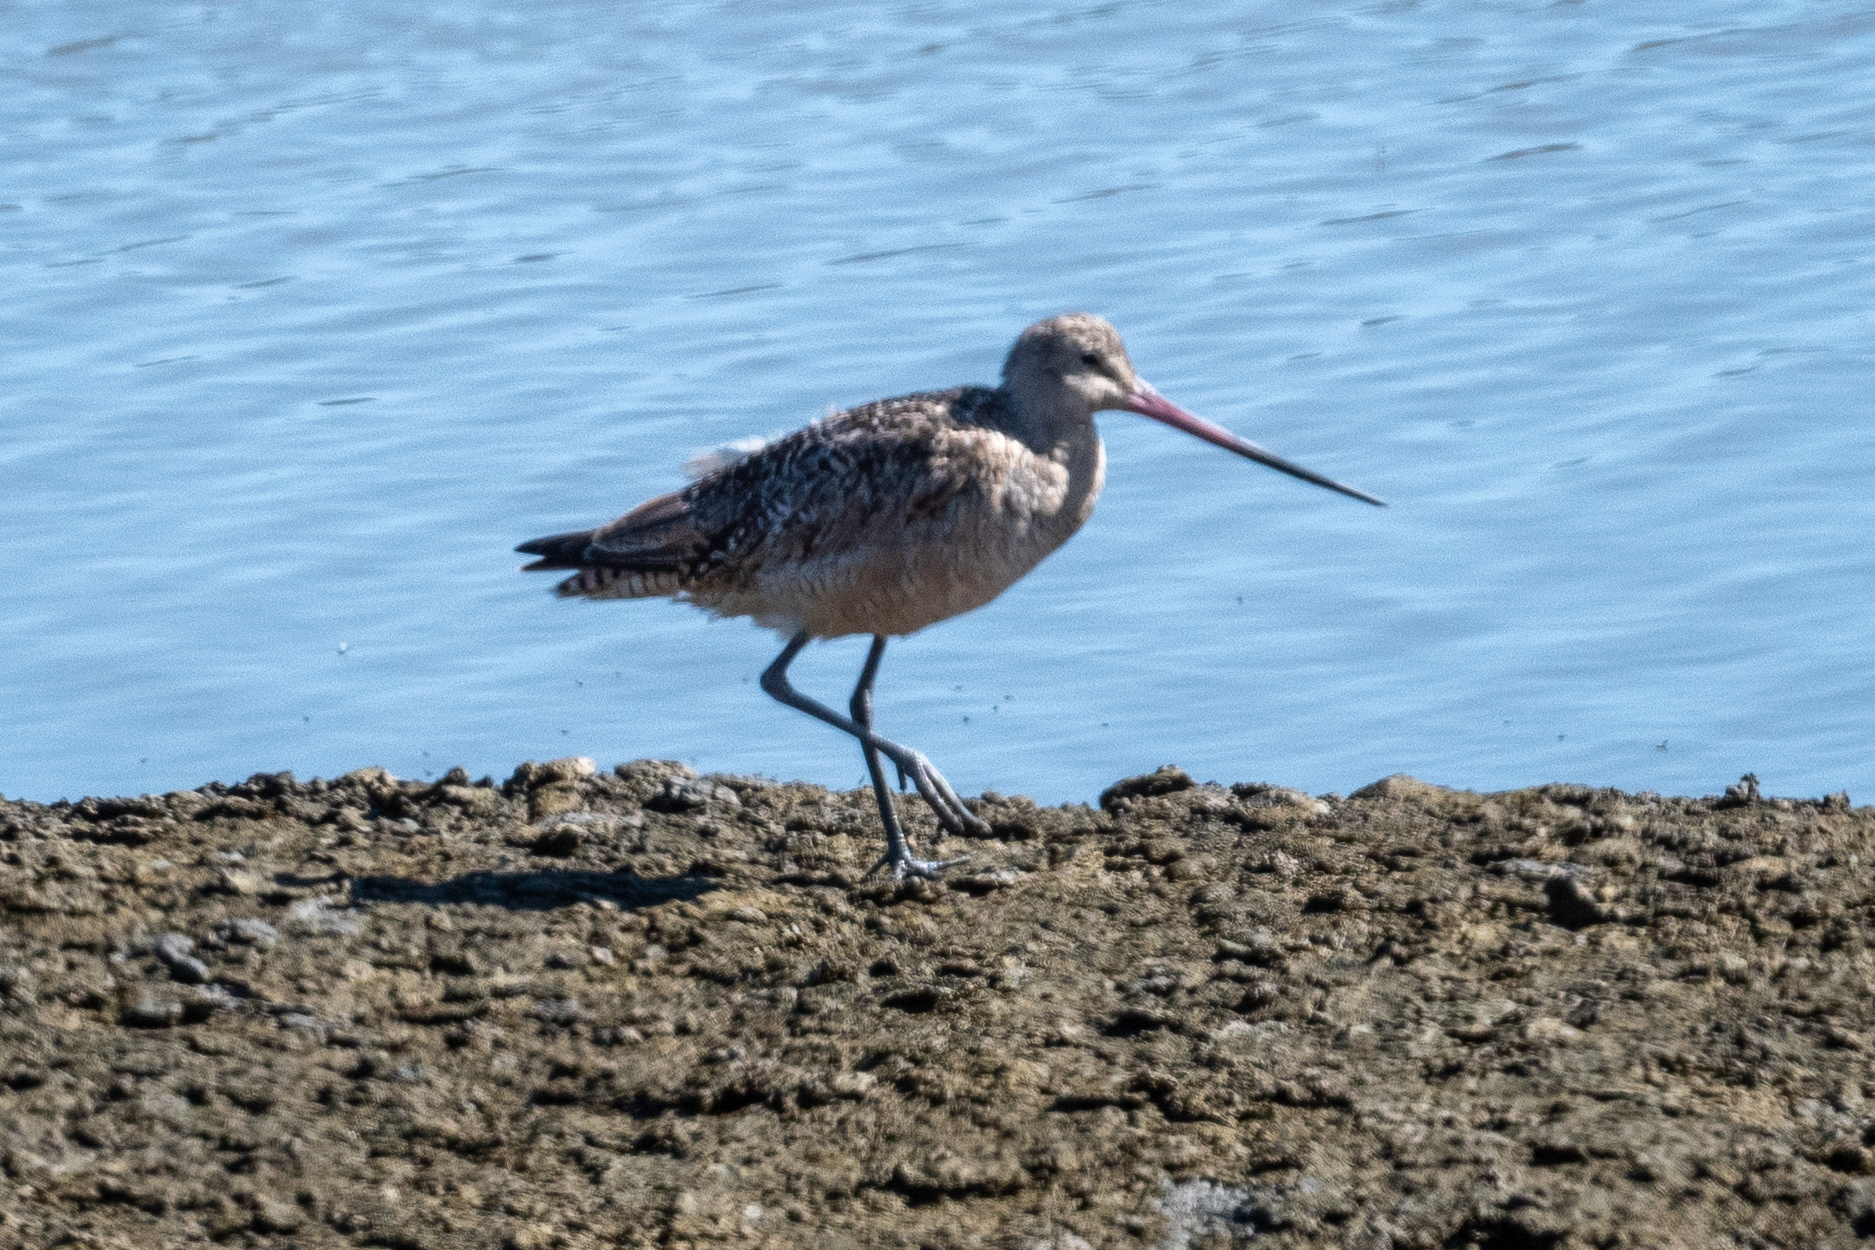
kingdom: Animalia
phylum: Chordata
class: Aves
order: Charadriiformes
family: Scolopacidae
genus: Limosa
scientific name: Limosa fedoa
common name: Marbled godwit
